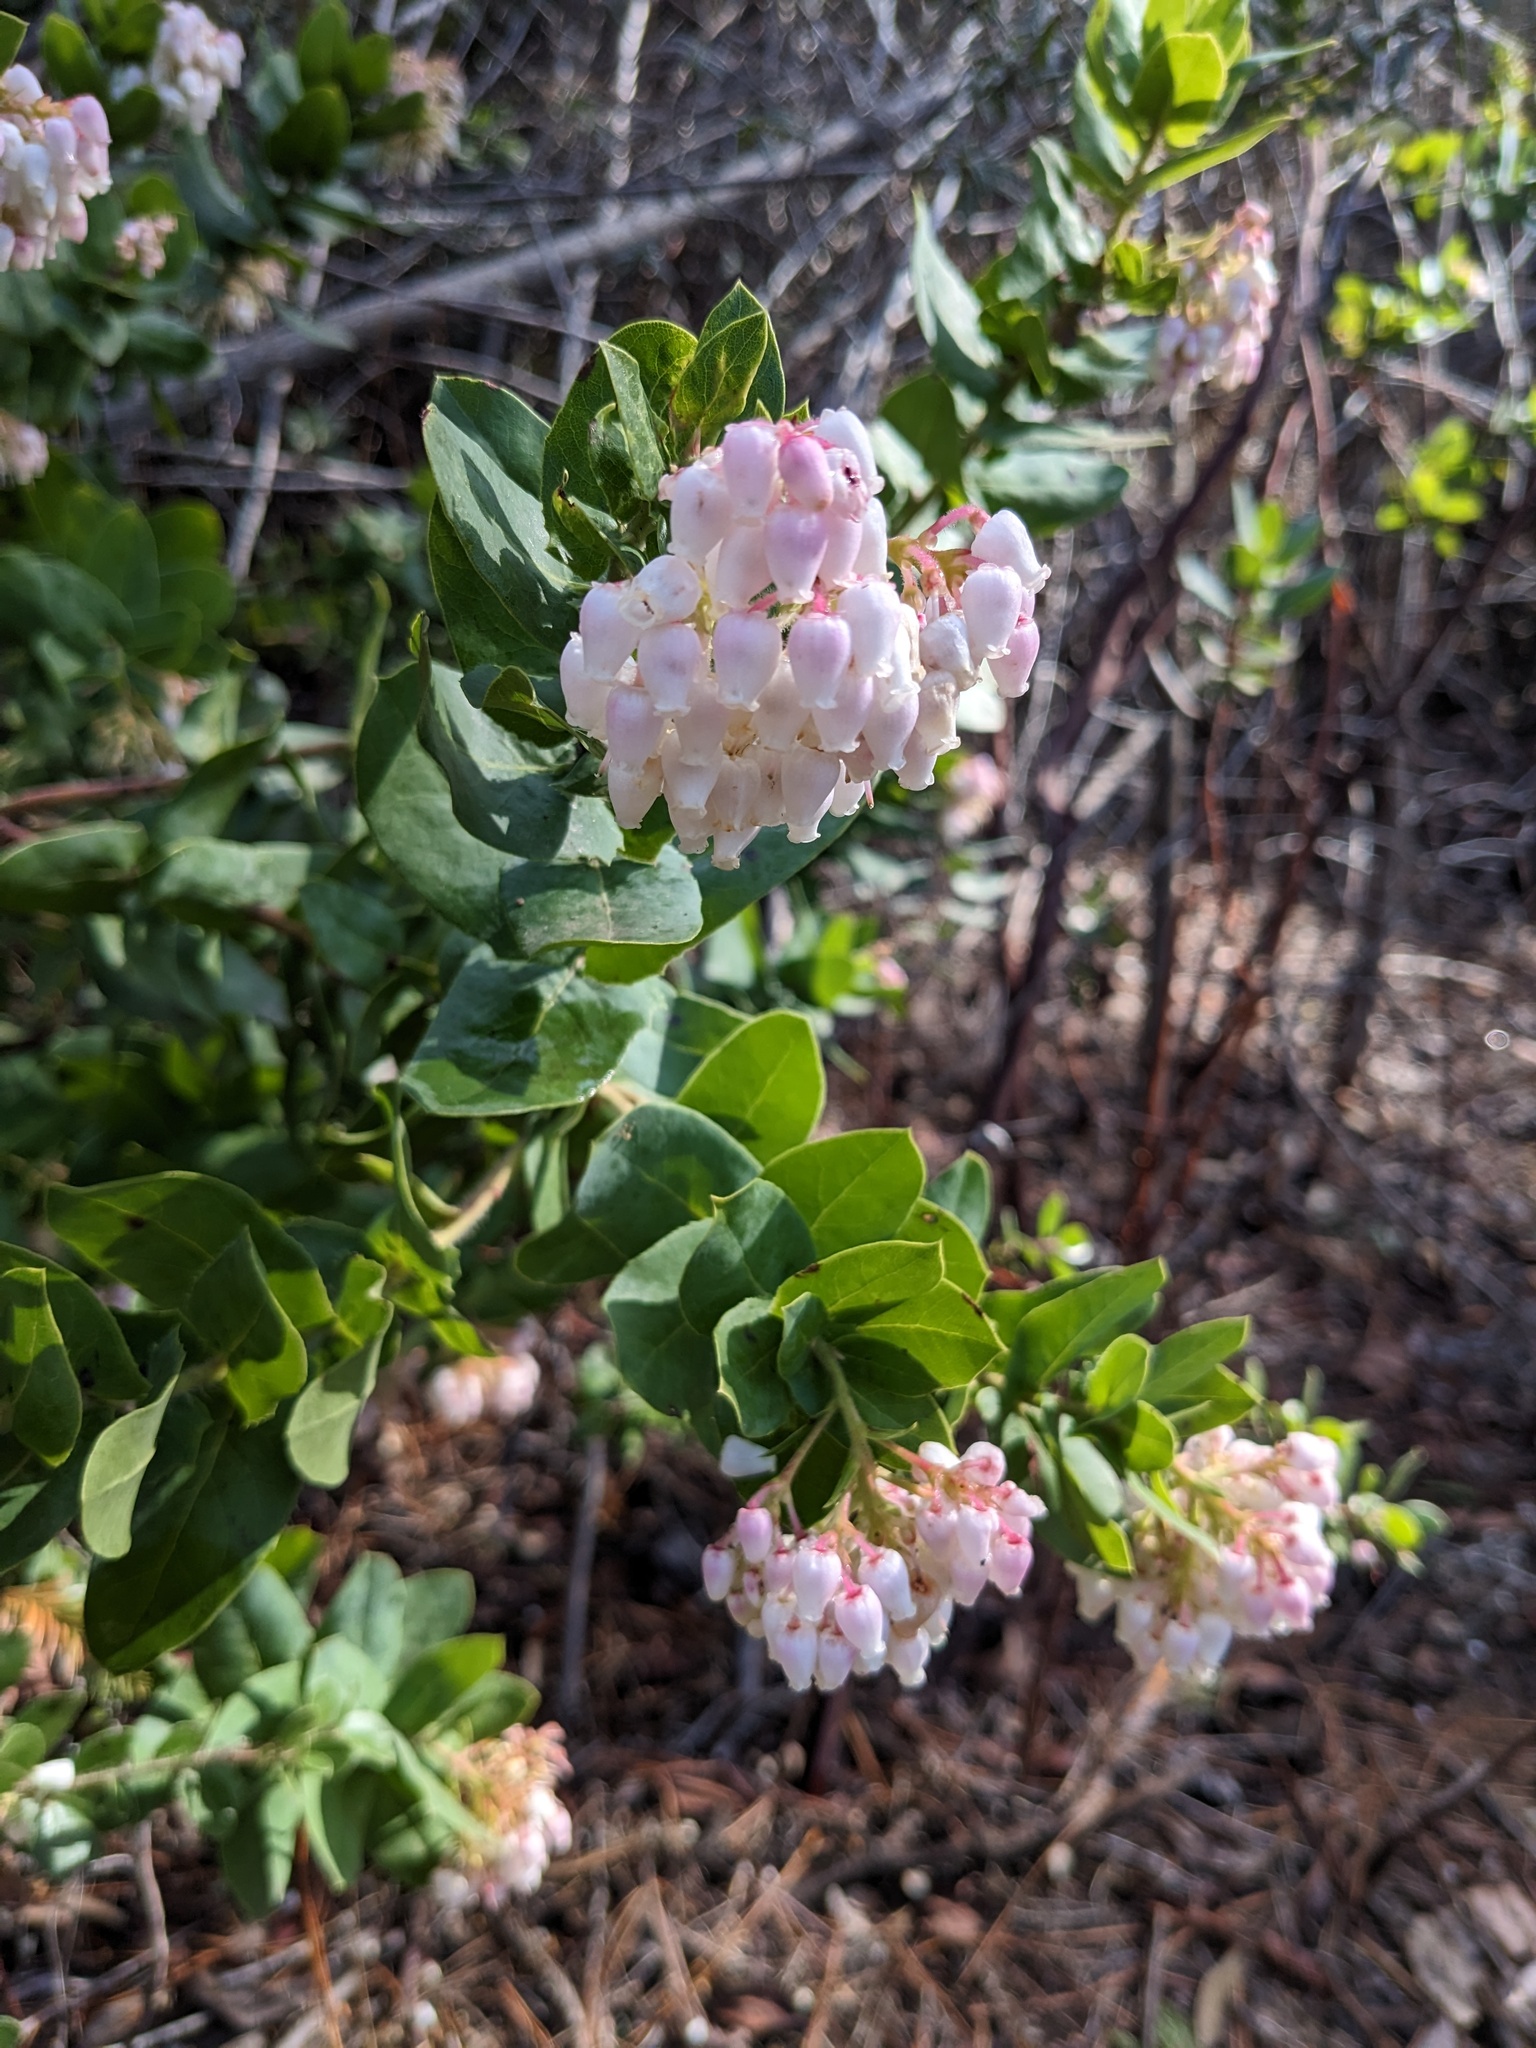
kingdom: Plantae
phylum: Tracheophyta
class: Magnoliopsida
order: Ericales
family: Ericaceae
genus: Arctostaphylos
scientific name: Arctostaphylos andersonii
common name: Santa cruz manzanita
